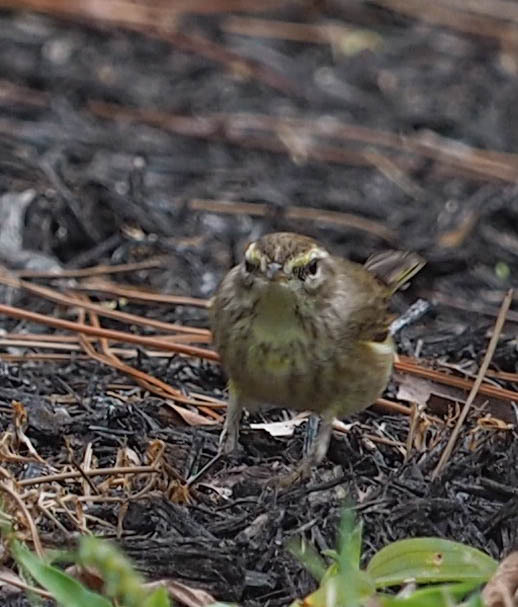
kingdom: Animalia
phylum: Chordata
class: Aves
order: Passeriformes
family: Parulidae
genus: Setophaga
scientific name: Setophaga palmarum
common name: Palm warbler
